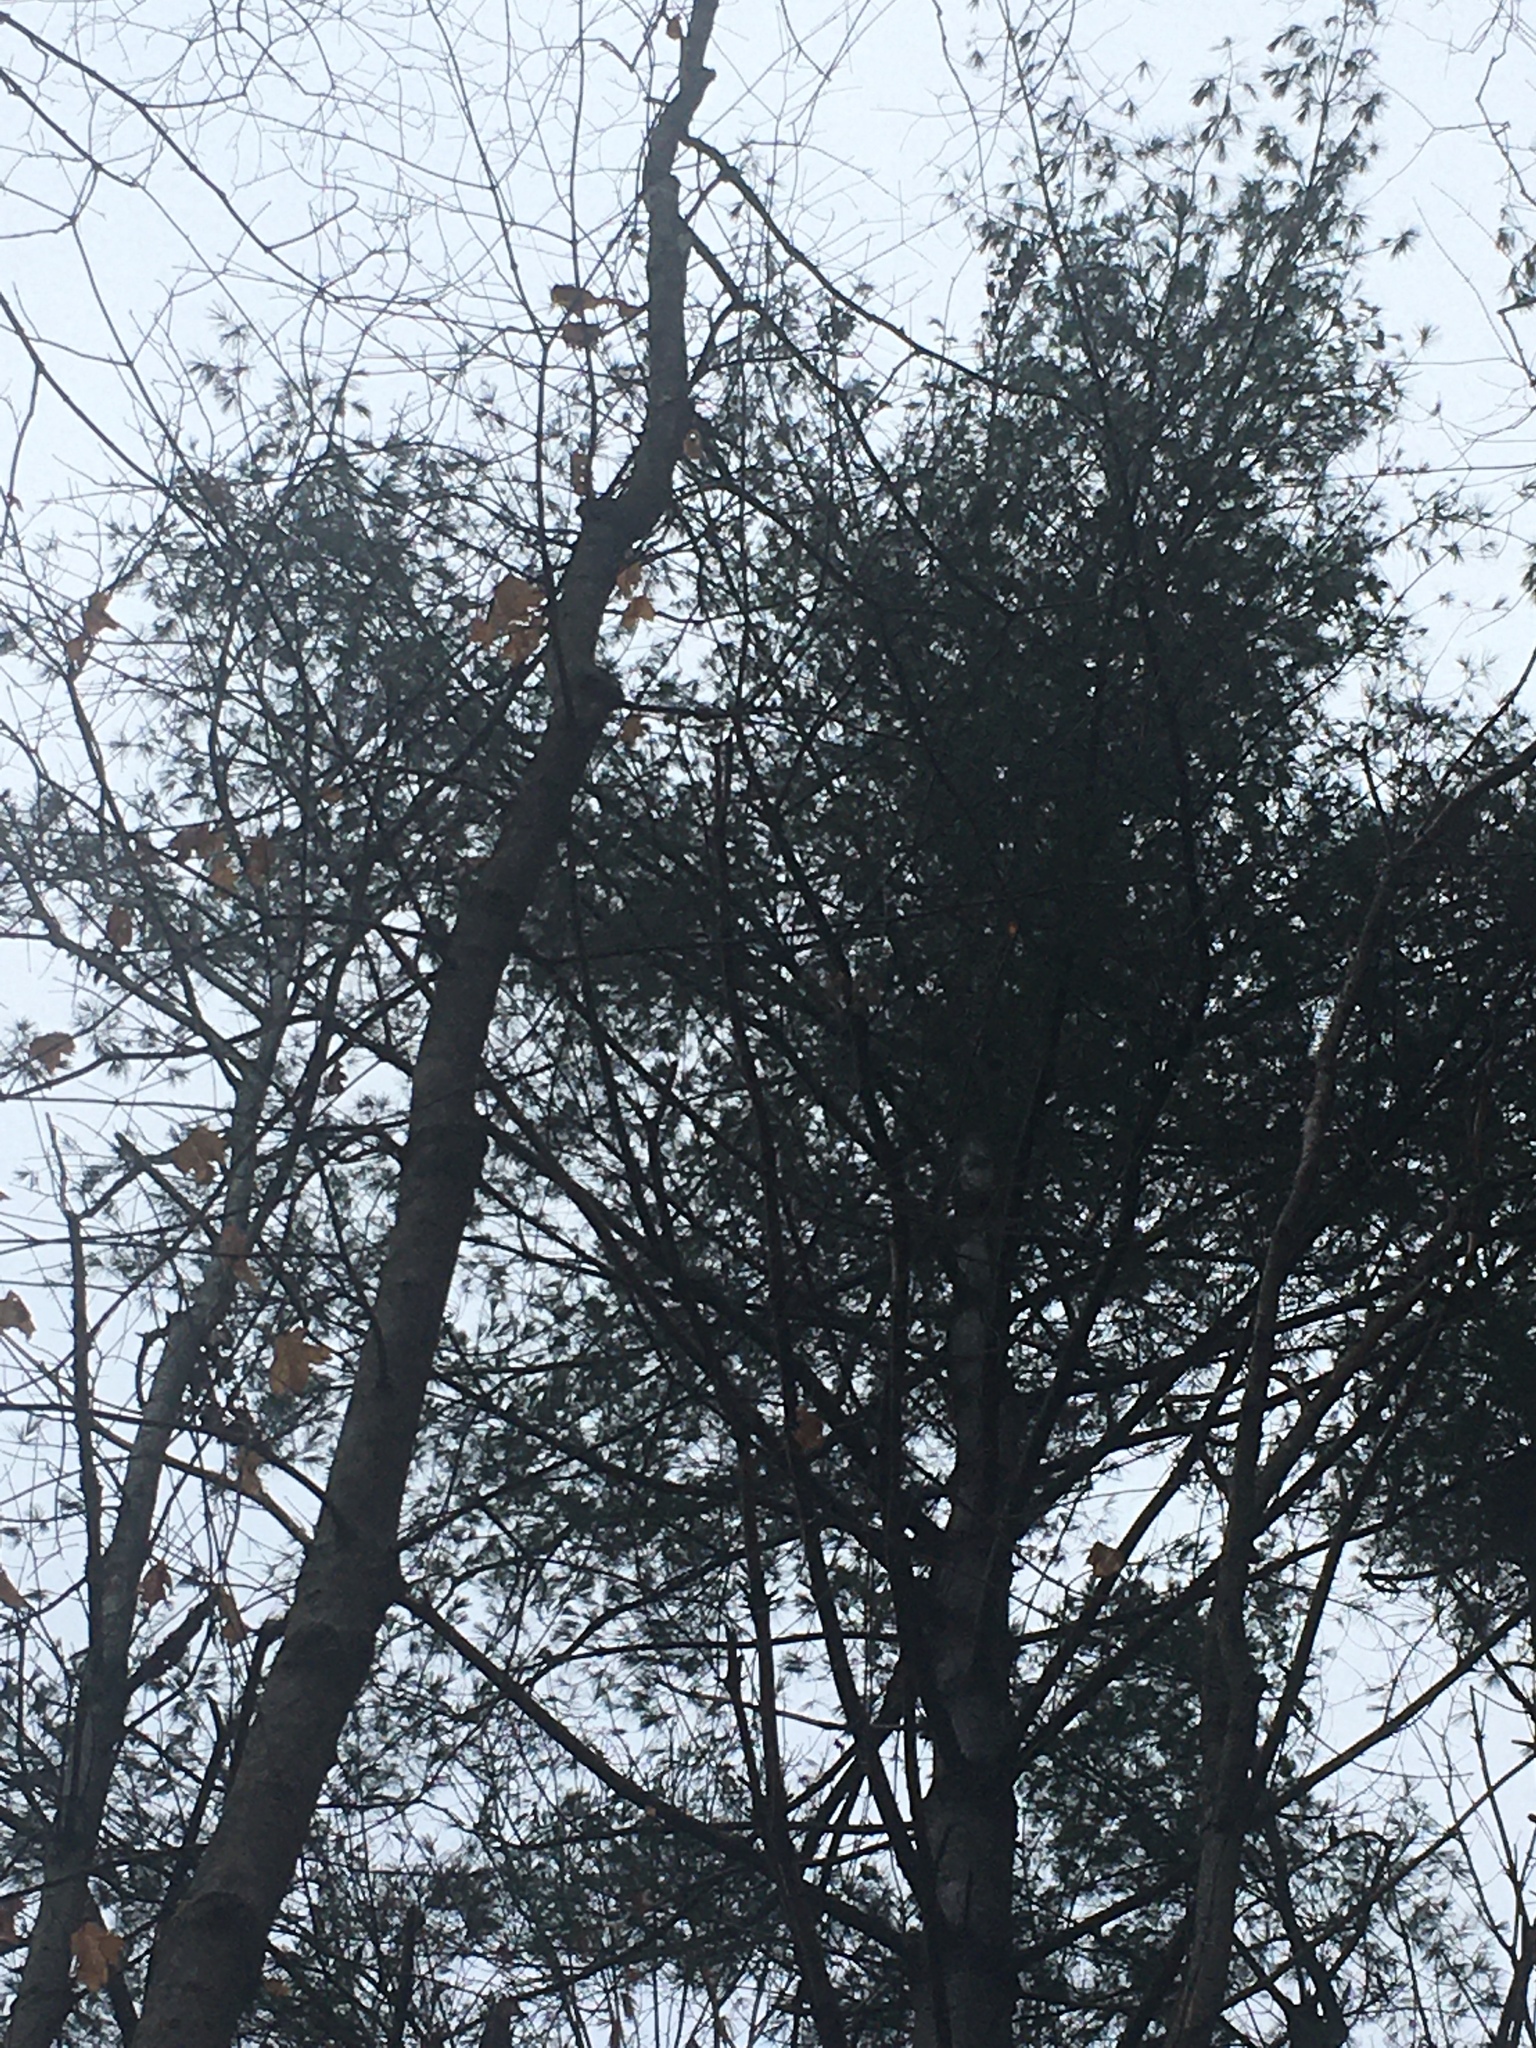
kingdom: Plantae
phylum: Tracheophyta
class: Pinopsida
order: Pinales
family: Pinaceae
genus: Pinus
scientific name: Pinus strobus
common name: Weymouth pine
